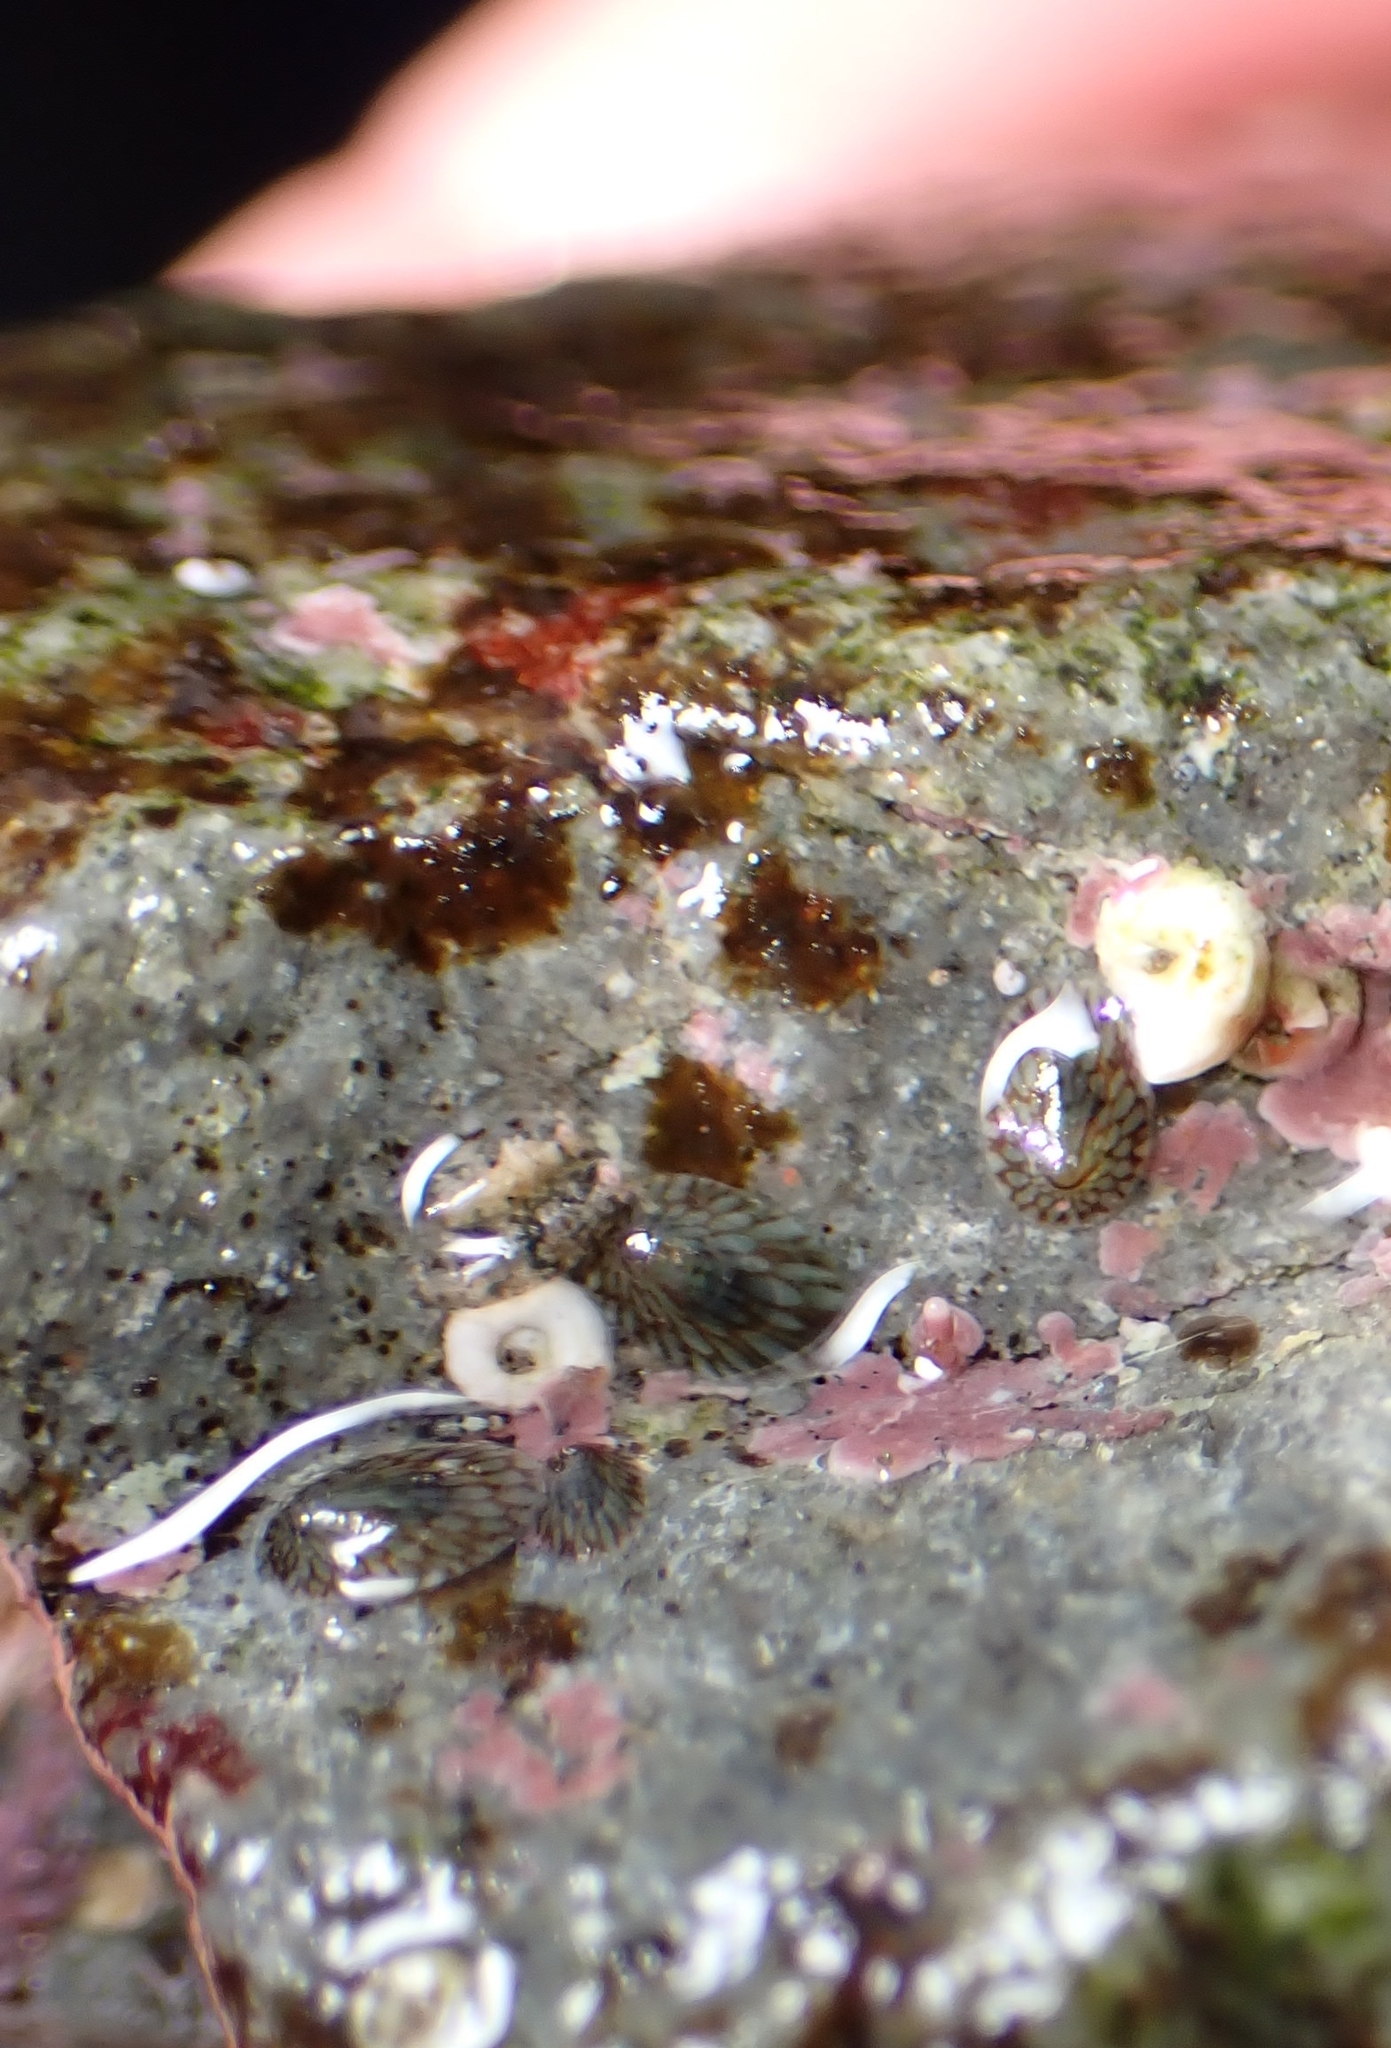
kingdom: Animalia
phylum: Mollusca
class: Gastropoda
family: Lottiidae
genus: Notoacmea
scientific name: Notoacmea
